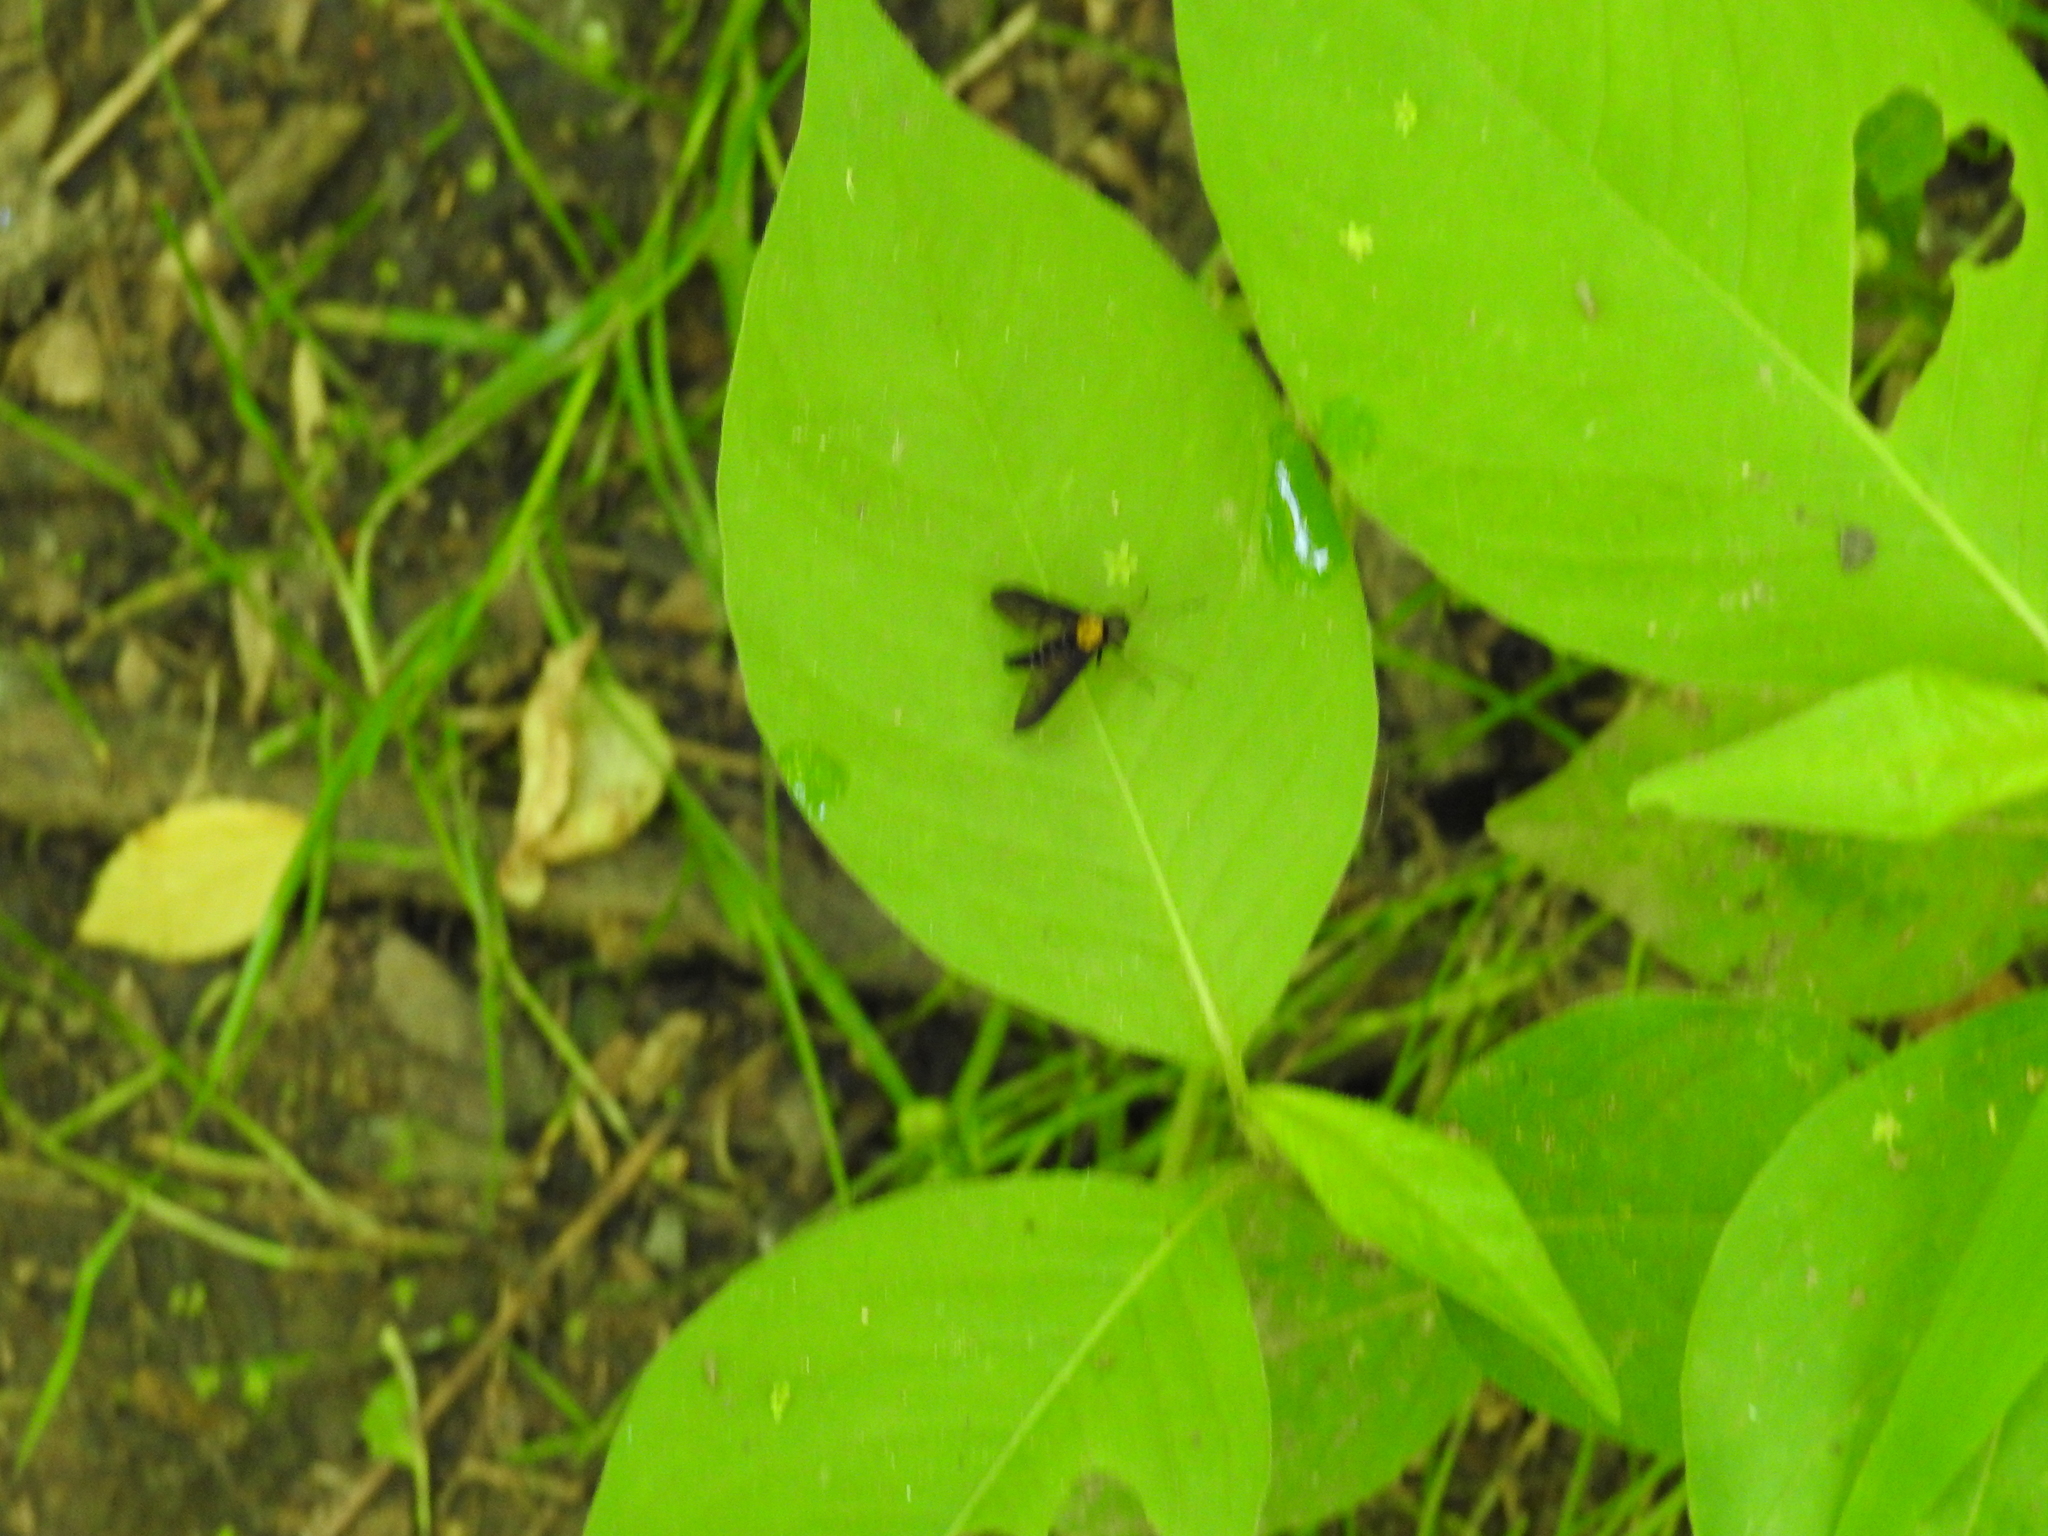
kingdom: Animalia
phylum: Arthropoda
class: Insecta
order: Diptera
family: Rhagionidae
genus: Chrysopilus
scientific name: Chrysopilus thoracicus
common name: Golden-backed snipe fly
